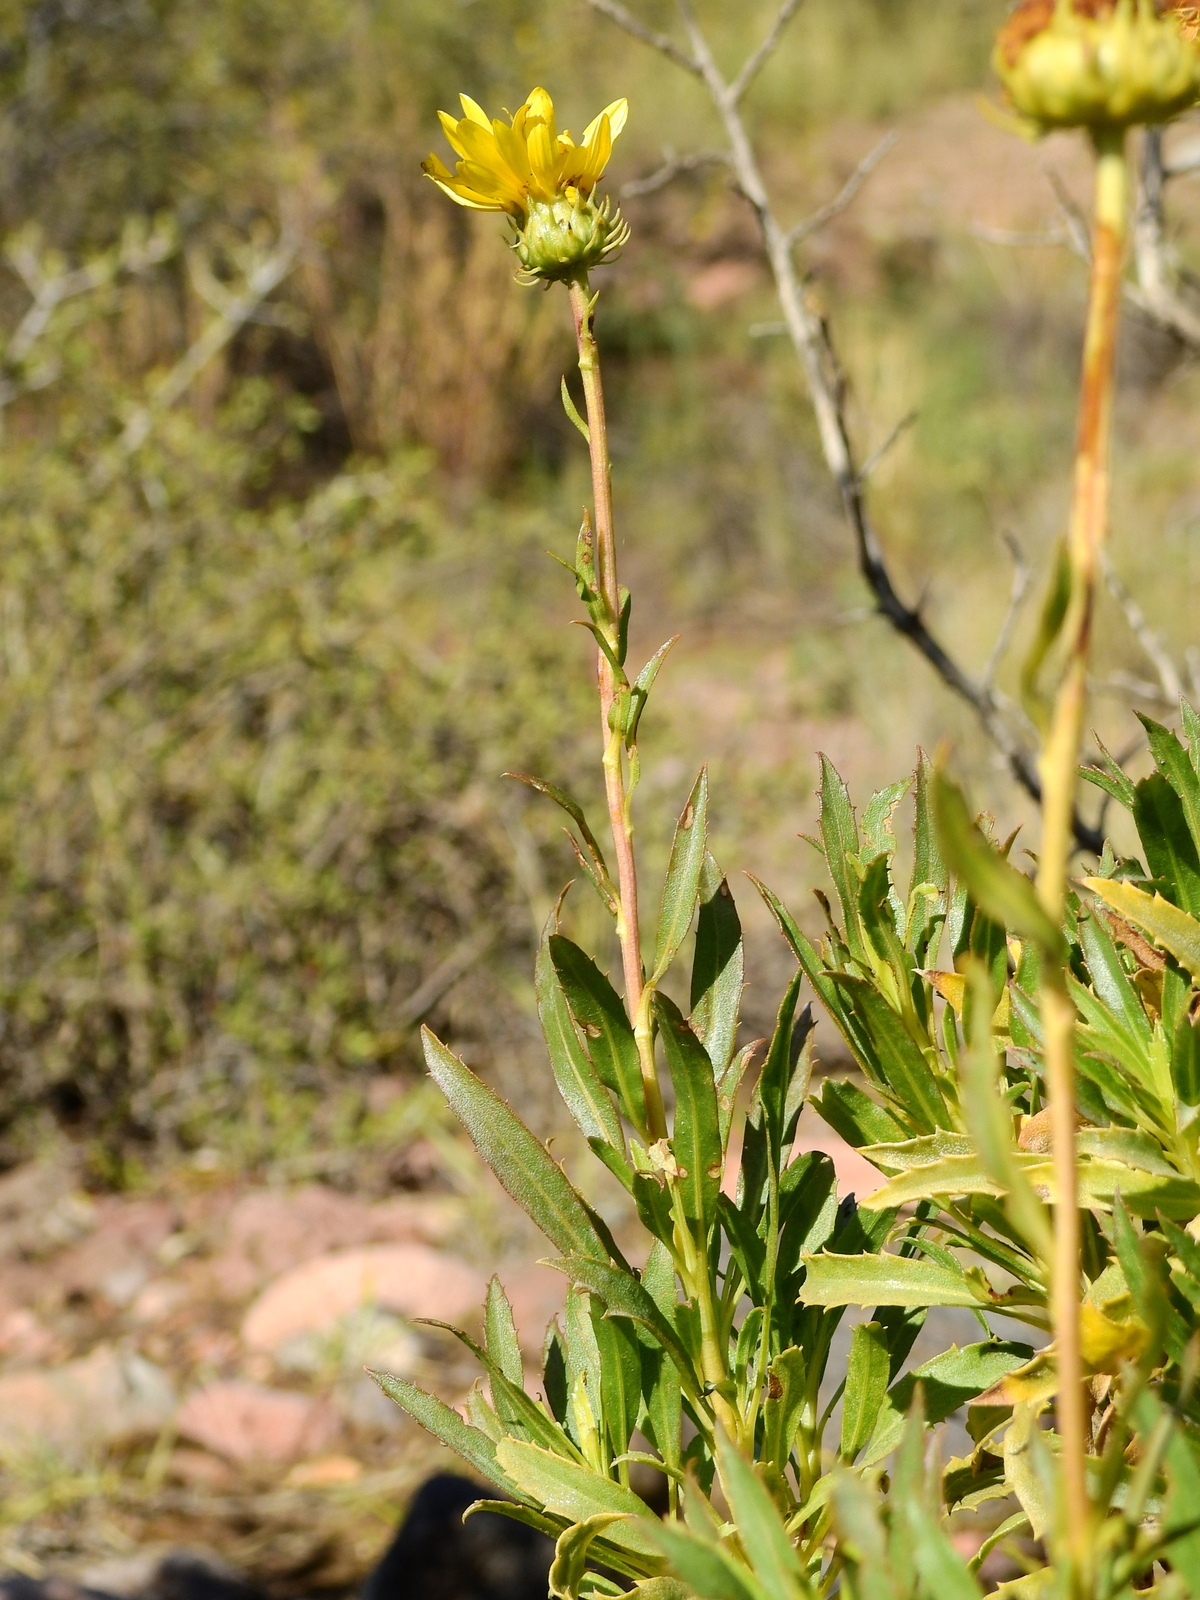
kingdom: Plantae
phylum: Tracheophyta
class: Magnoliopsida
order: Asterales
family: Asteraceae
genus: Grindelia
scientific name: Grindelia chiloensis
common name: Shrubby gumweed
